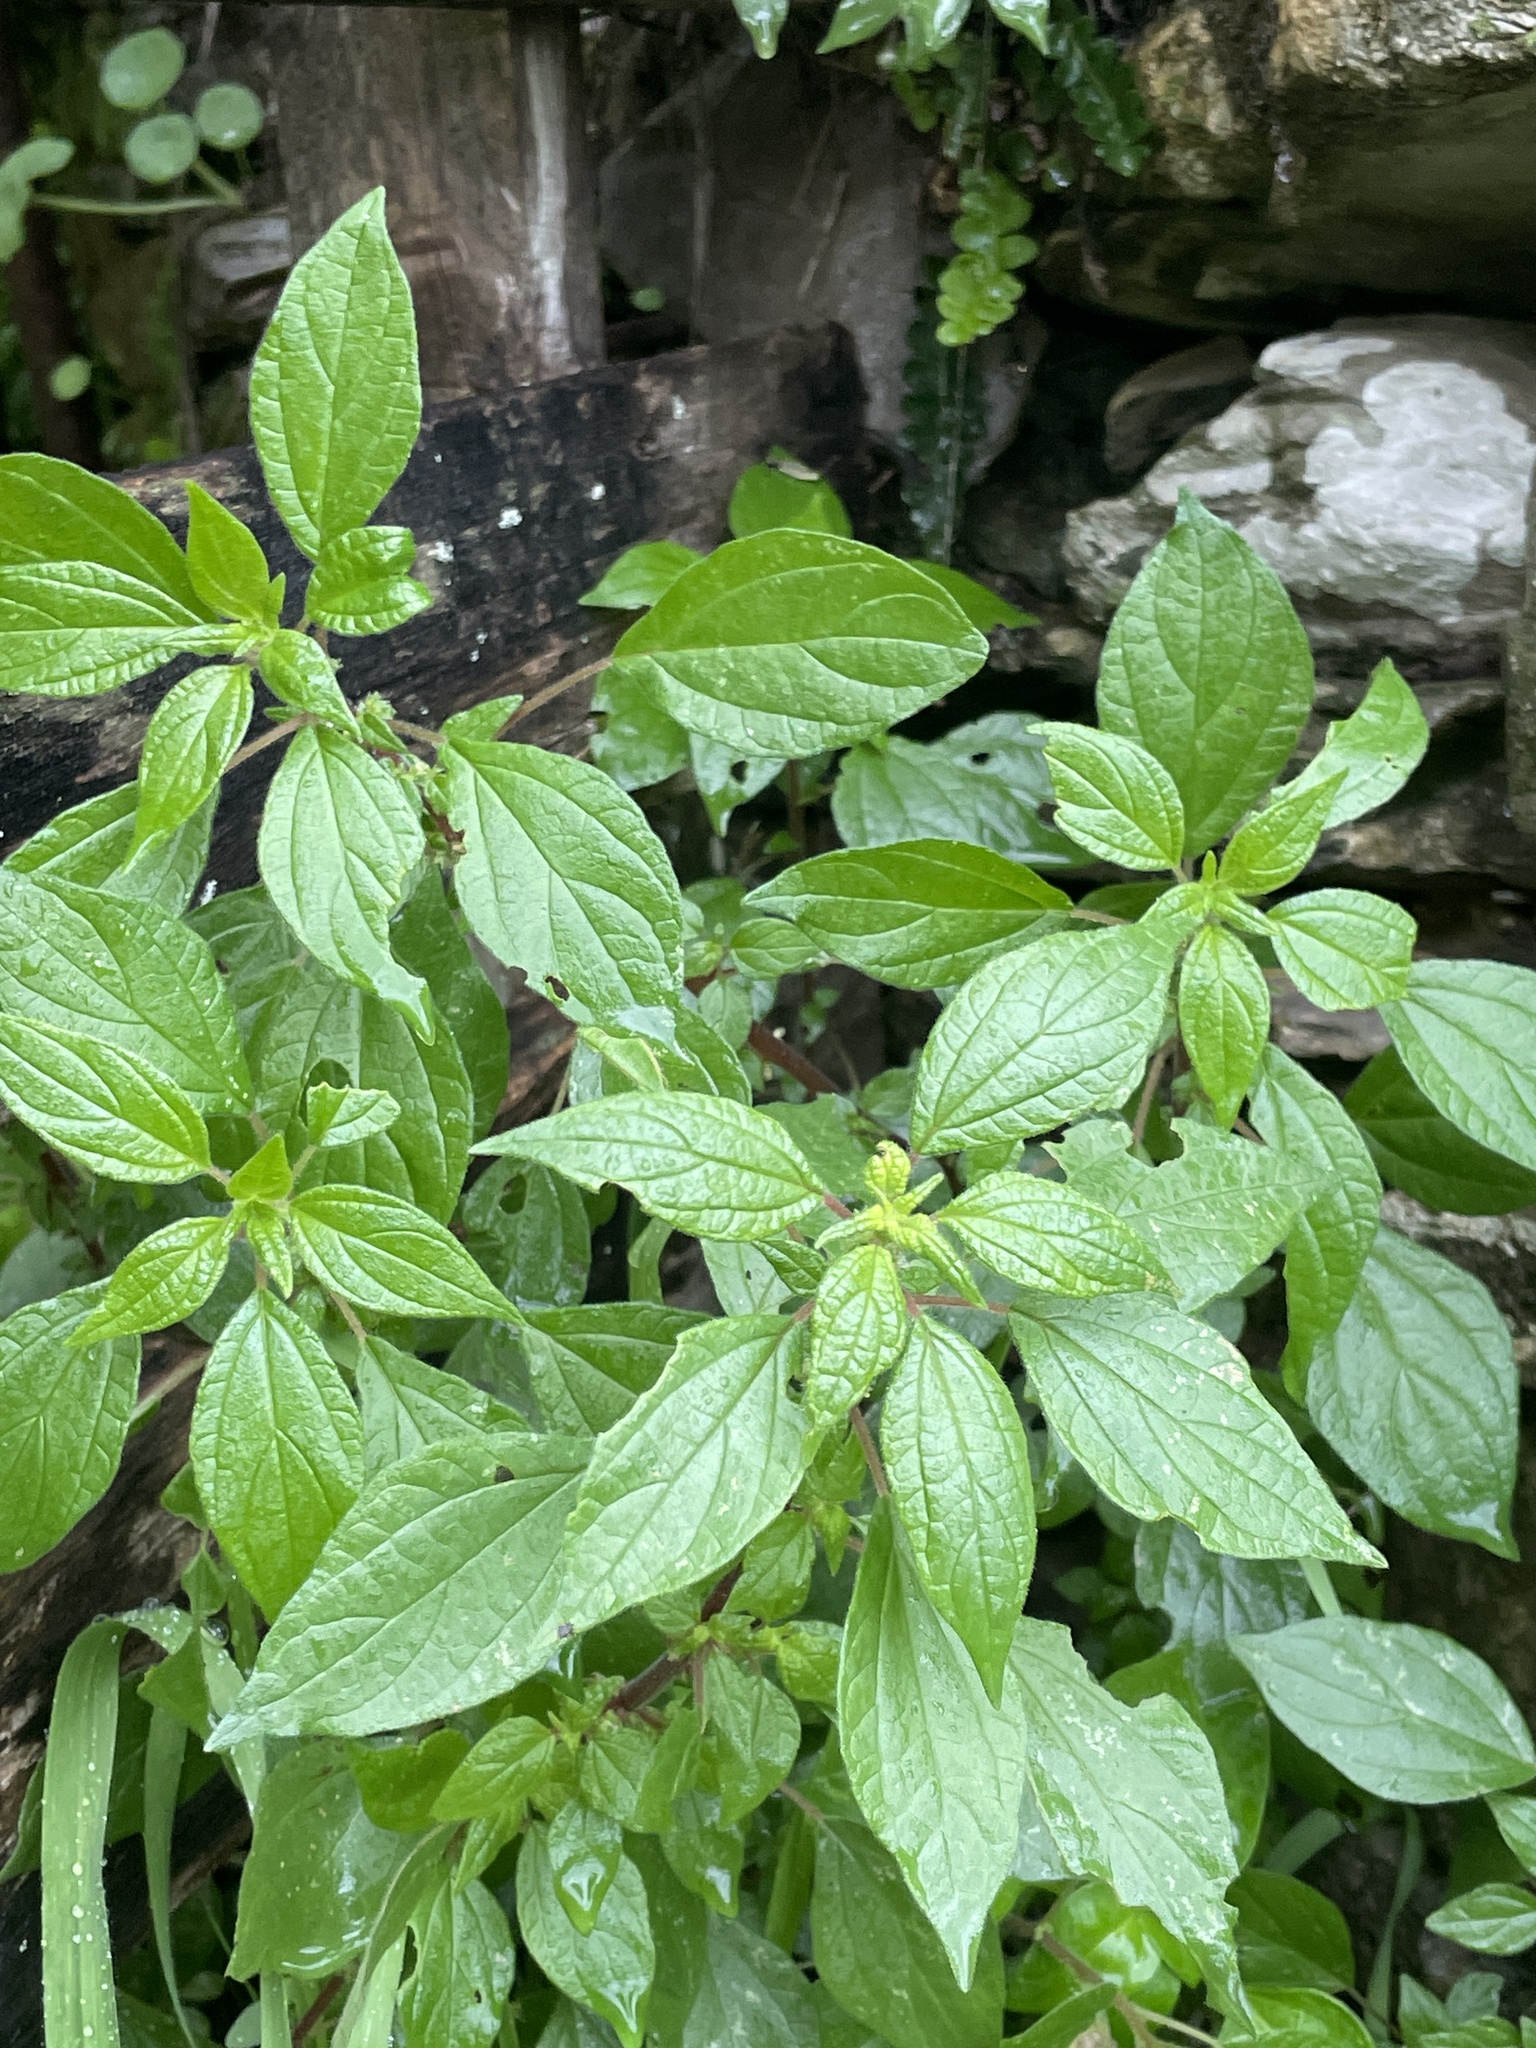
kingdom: Plantae
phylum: Tracheophyta
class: Magnoliopsida
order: Rosales
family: Urticaceae
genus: Parietaria
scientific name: Parietaria officinalis
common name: Eastern pellitory-of-the-wall
